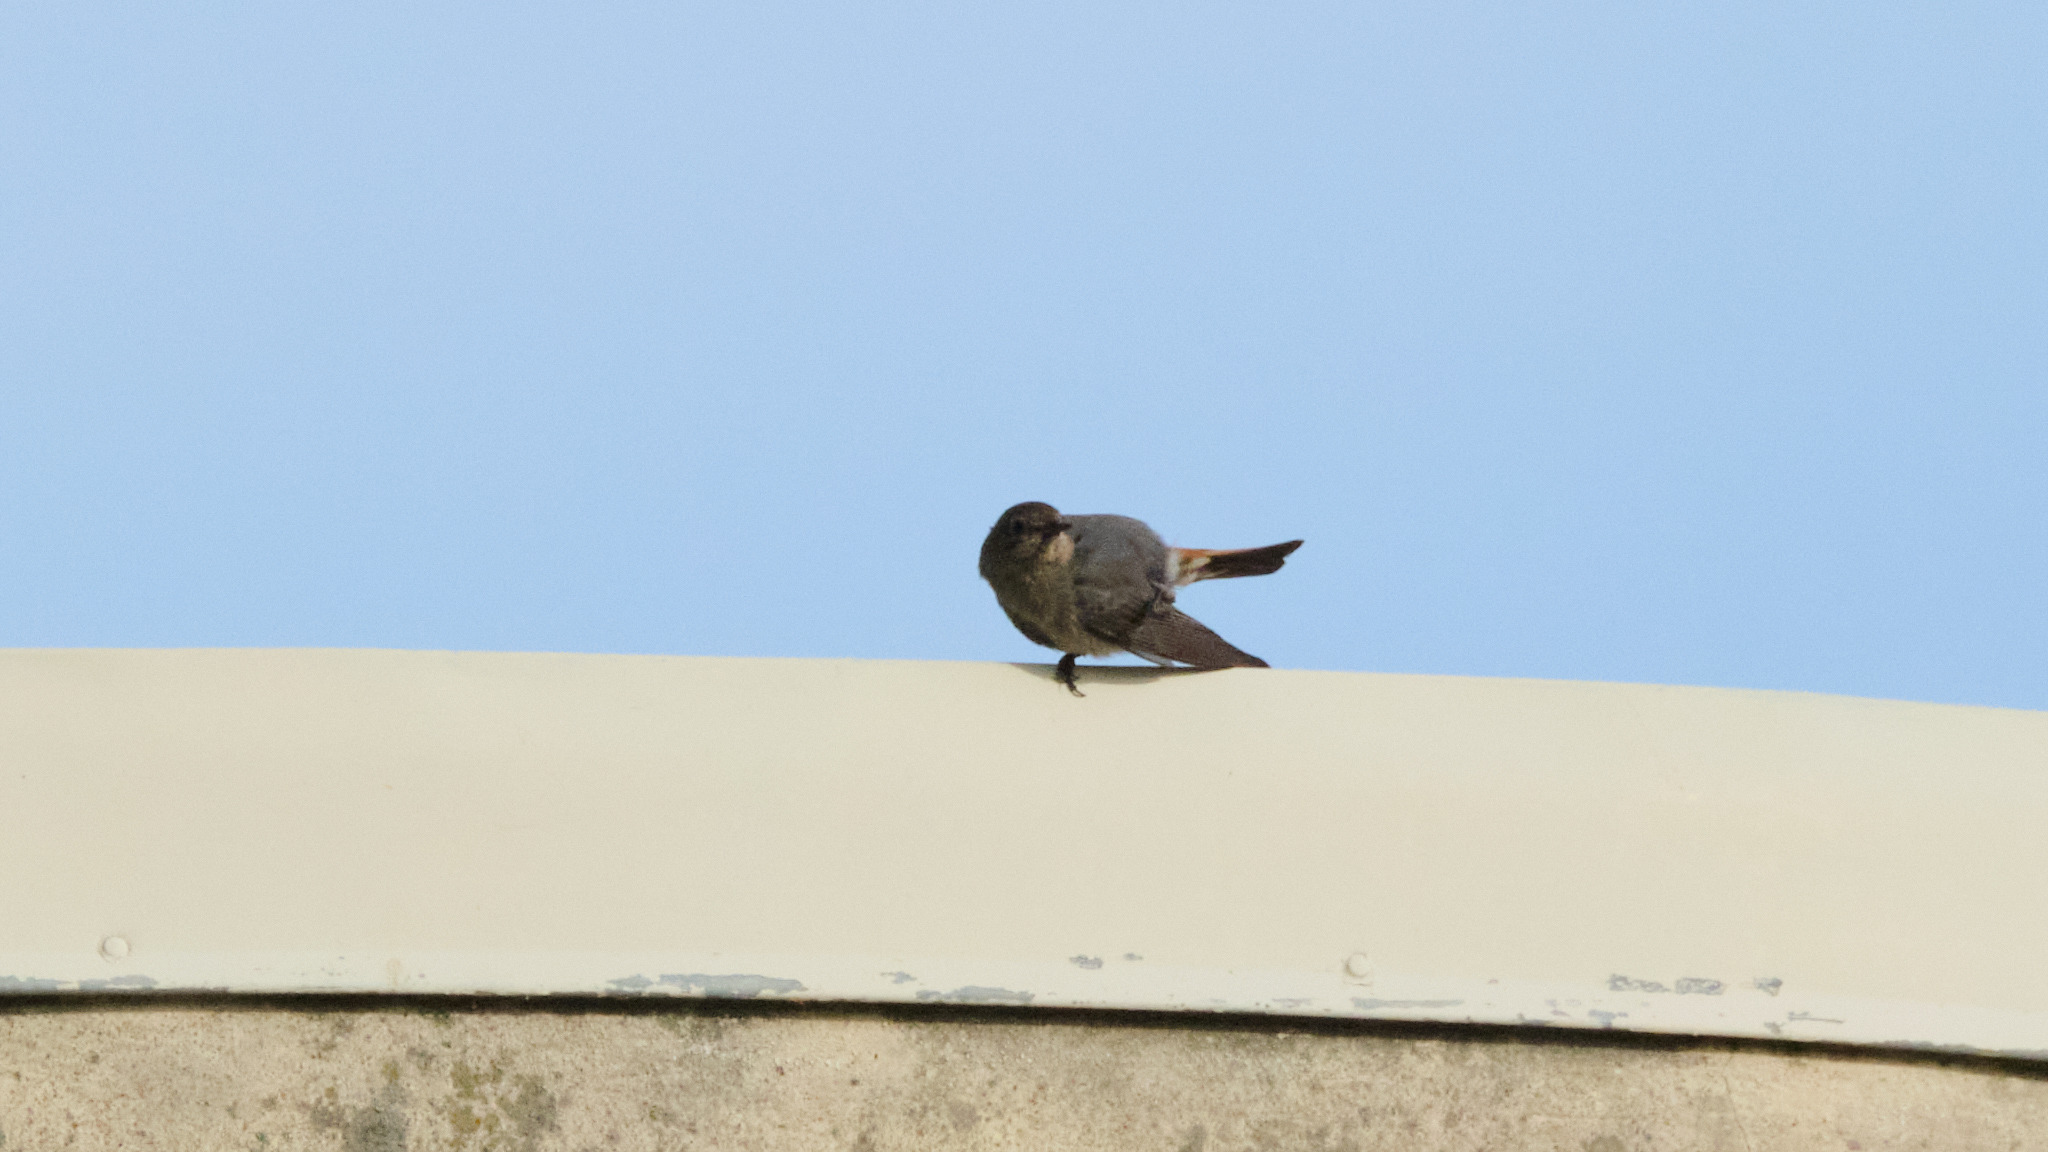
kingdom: Animalia
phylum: Chordata
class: Aves
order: Passeriformes
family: Muscicapidae
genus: Phoenicurus
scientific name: Phoenicurus ochruros
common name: Black redstart
